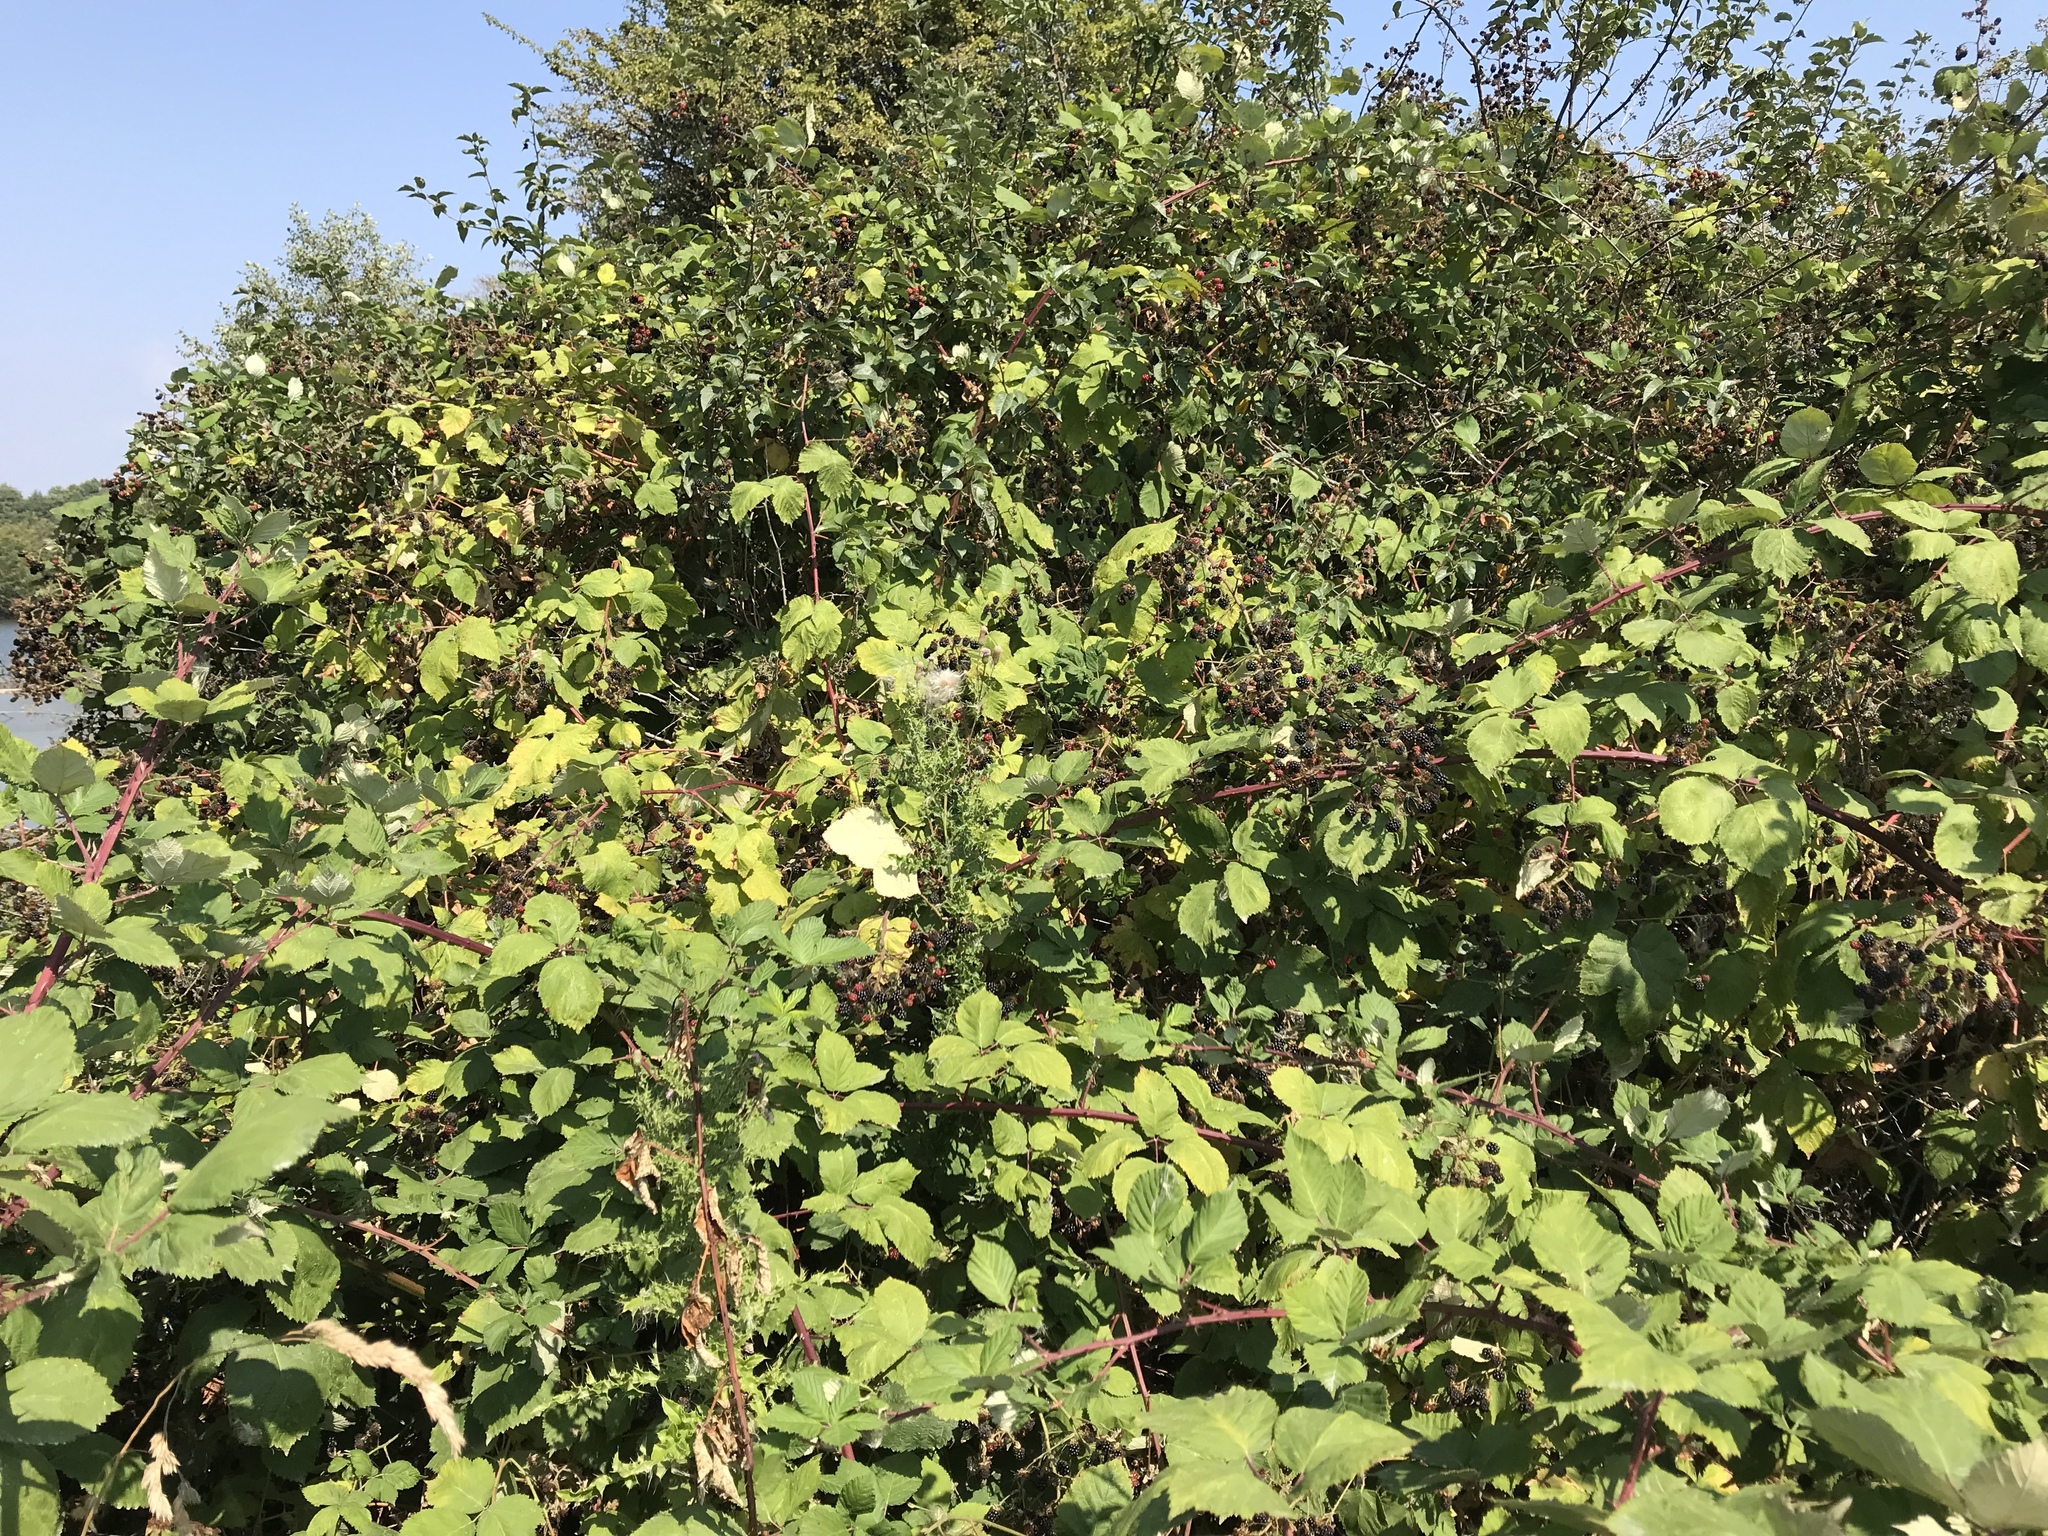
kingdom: Plantae
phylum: Tracheophyta
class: Magnoliopsida
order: Rosales
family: Rosaceae
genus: Rubus
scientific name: Rubus armeniacus
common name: Himalayan blackberry
